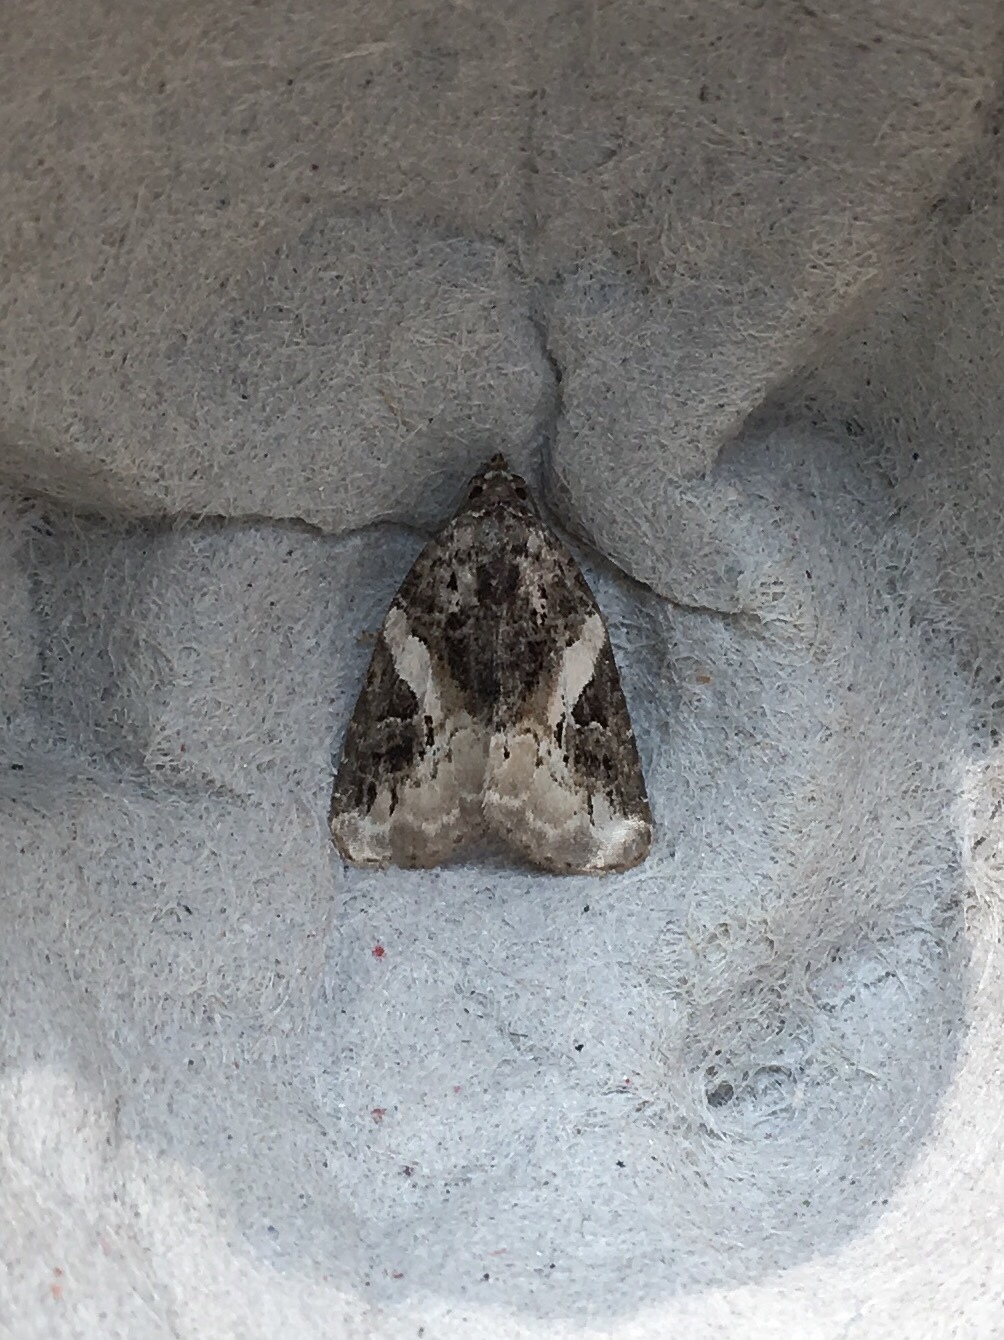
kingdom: Animalia
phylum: Arthropoda
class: Insecta
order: Lepidoptera
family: Noctuidae
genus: Pseudeustrotia
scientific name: Pseudeustrotia carneola
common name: Pink-barred lithacodia moth
